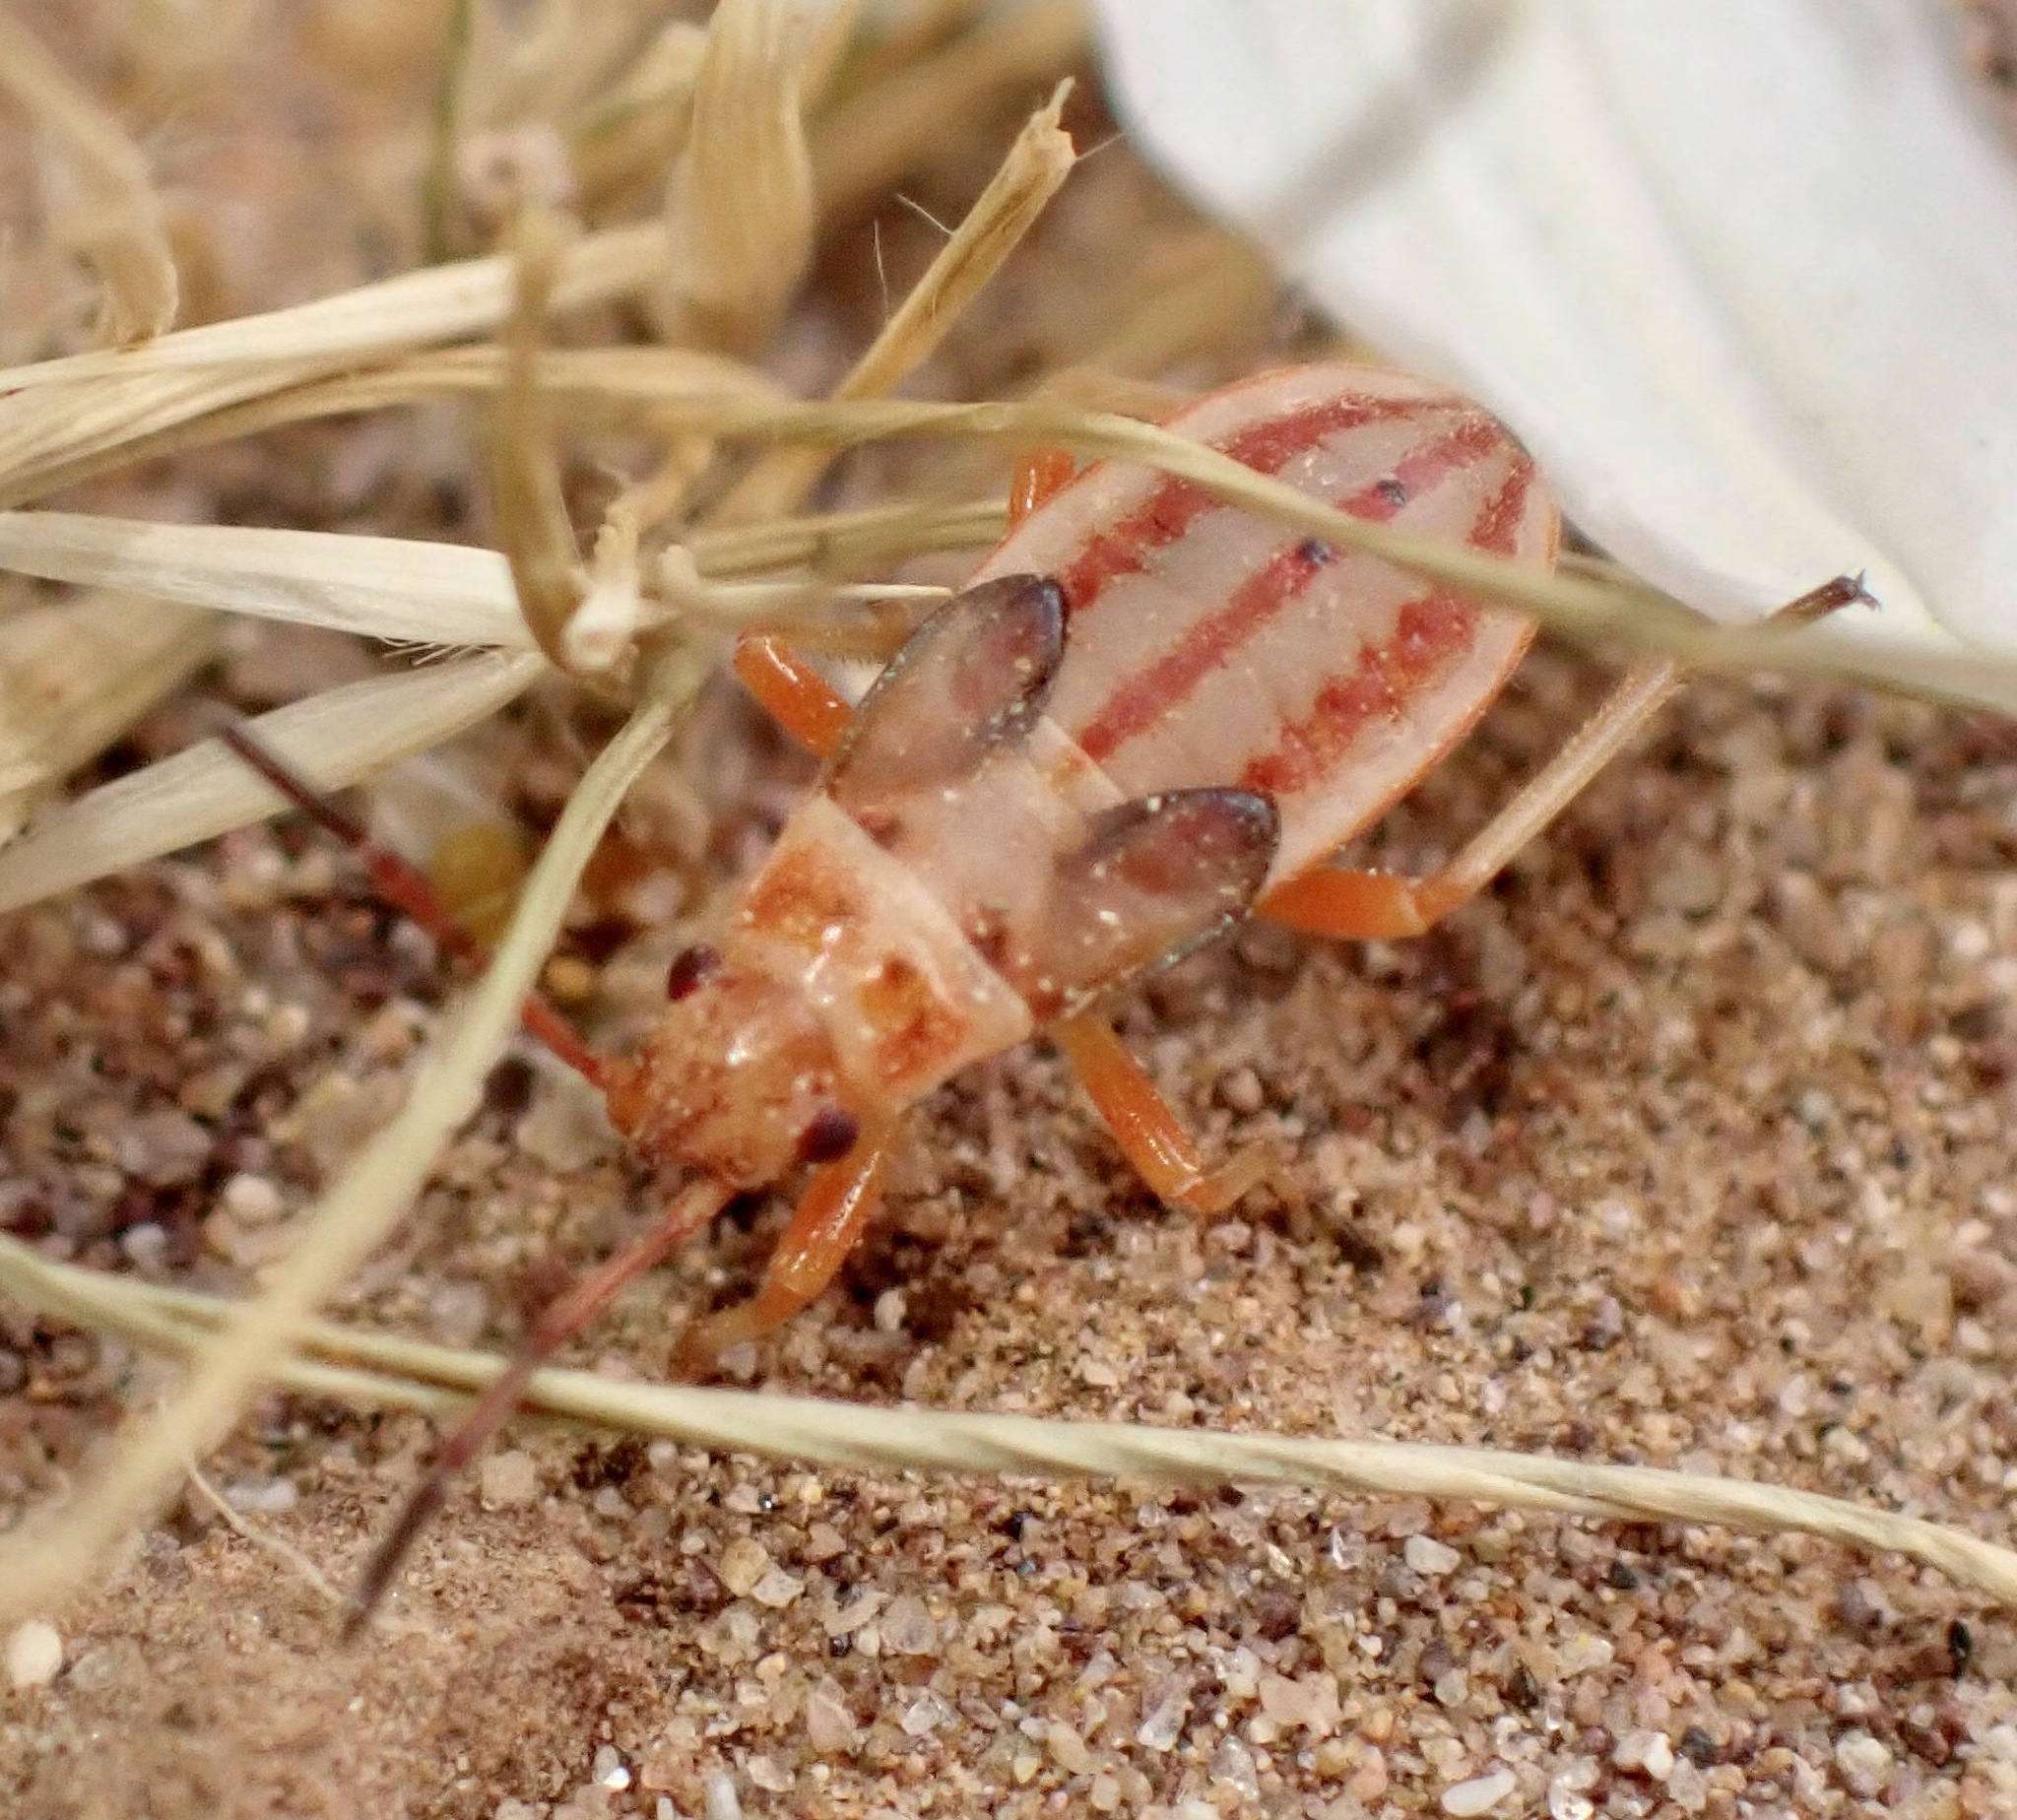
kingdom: Animalia
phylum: Arthropoda
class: Insecta
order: Hemiptera
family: Lygaeidae
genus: Cosmopleurus
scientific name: Cosmopleurus fulvipes
